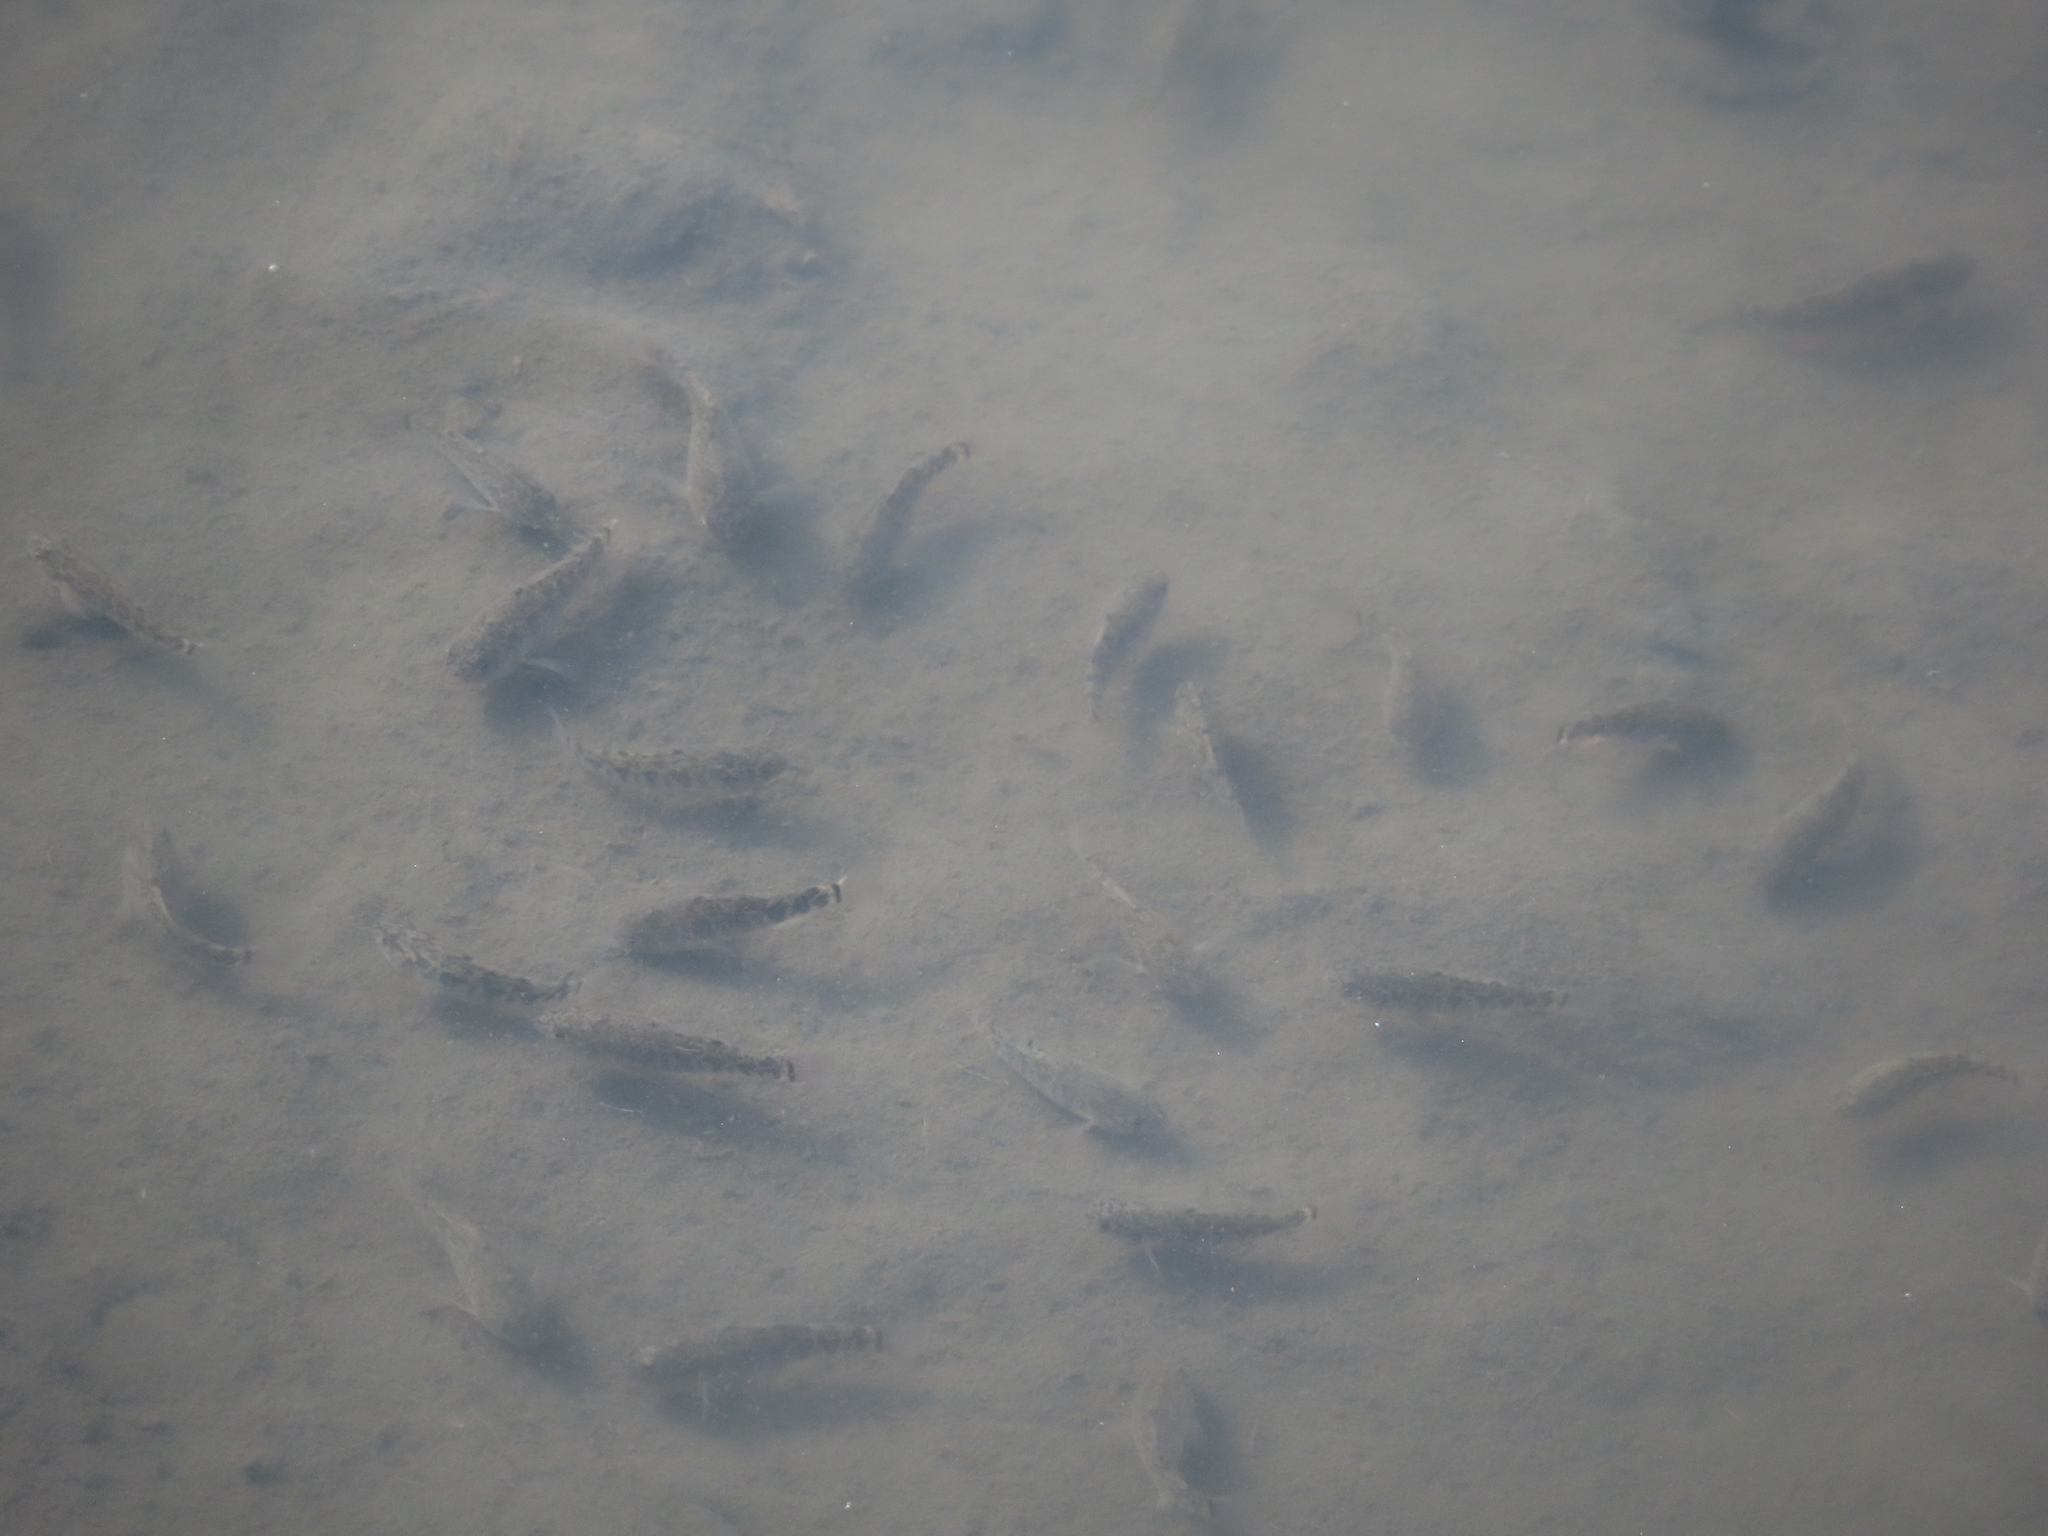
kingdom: Animalia
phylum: Chordata
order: Cyprinodontiformes
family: Cyprinodontidae
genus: Cyprinodon
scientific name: Cyprinodon variegatus
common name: Sheepshead minnow
